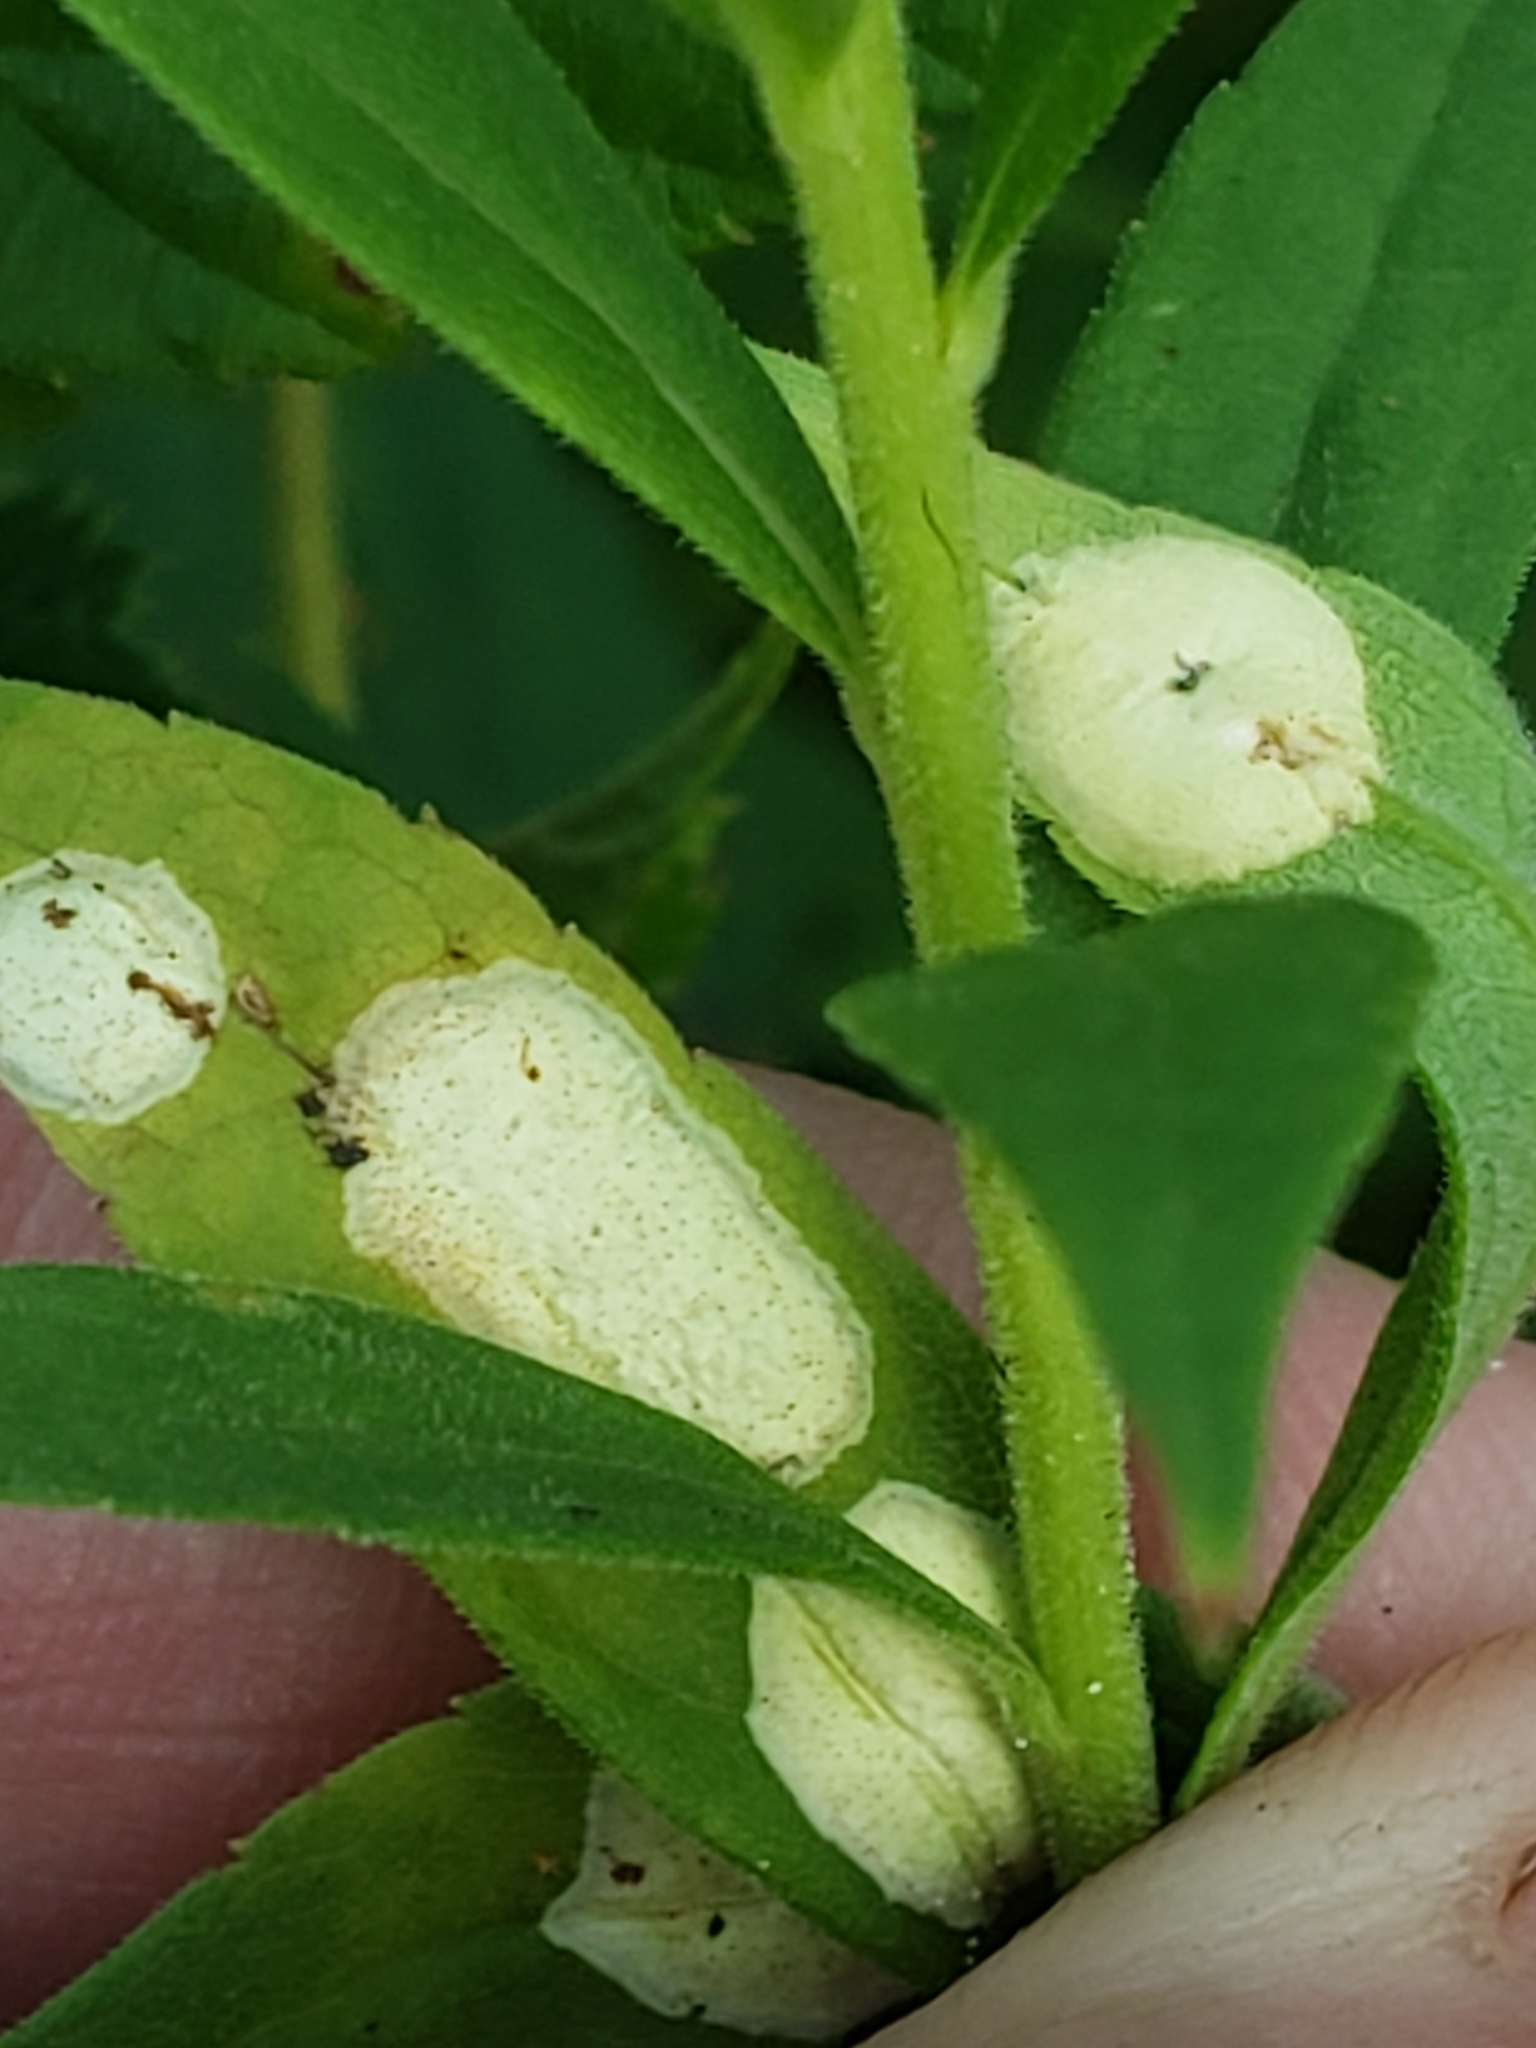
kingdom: Animalia
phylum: Arthropoda
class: Insecta
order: Diptera
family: Cecidomyiidae
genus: Asteromyia
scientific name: Asteromyia carbonifera
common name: Carbonifera goldenrod gall midge
